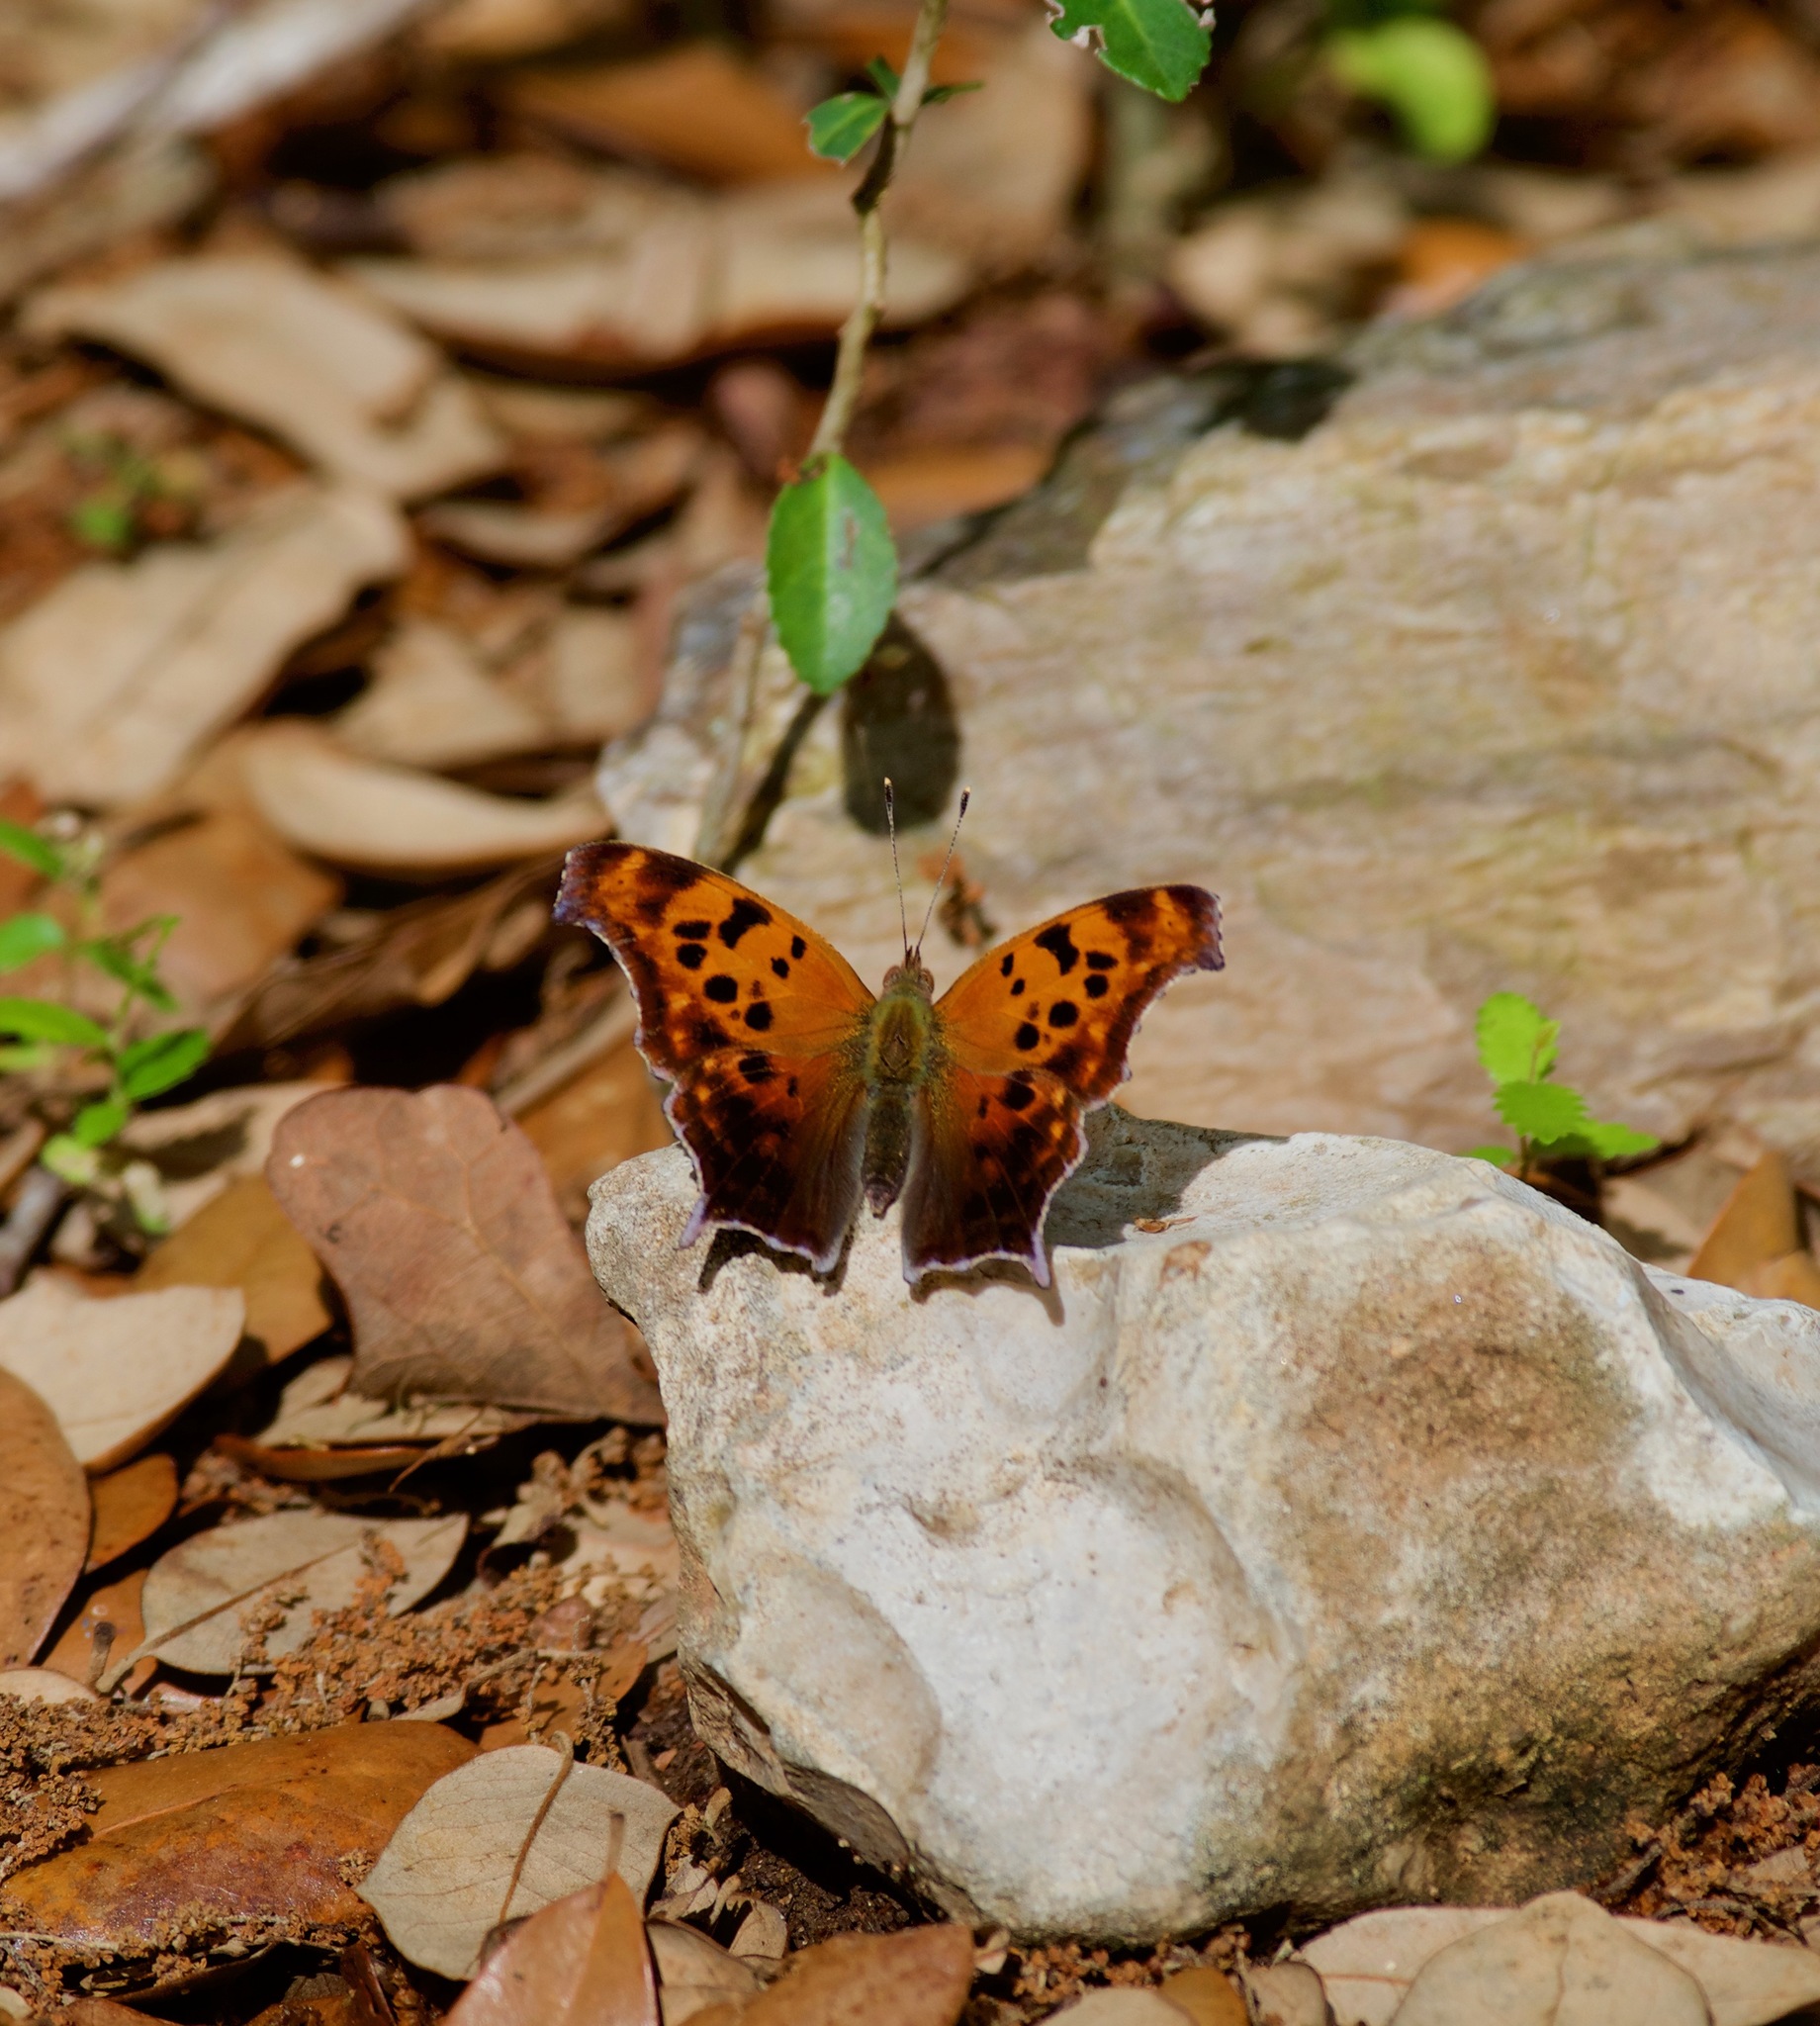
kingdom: Animalia
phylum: Arthropoda
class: Insecta
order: Lepidoptera
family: Nymphalidae
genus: Polygonia
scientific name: Polygonia interrogationis
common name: Question mark
